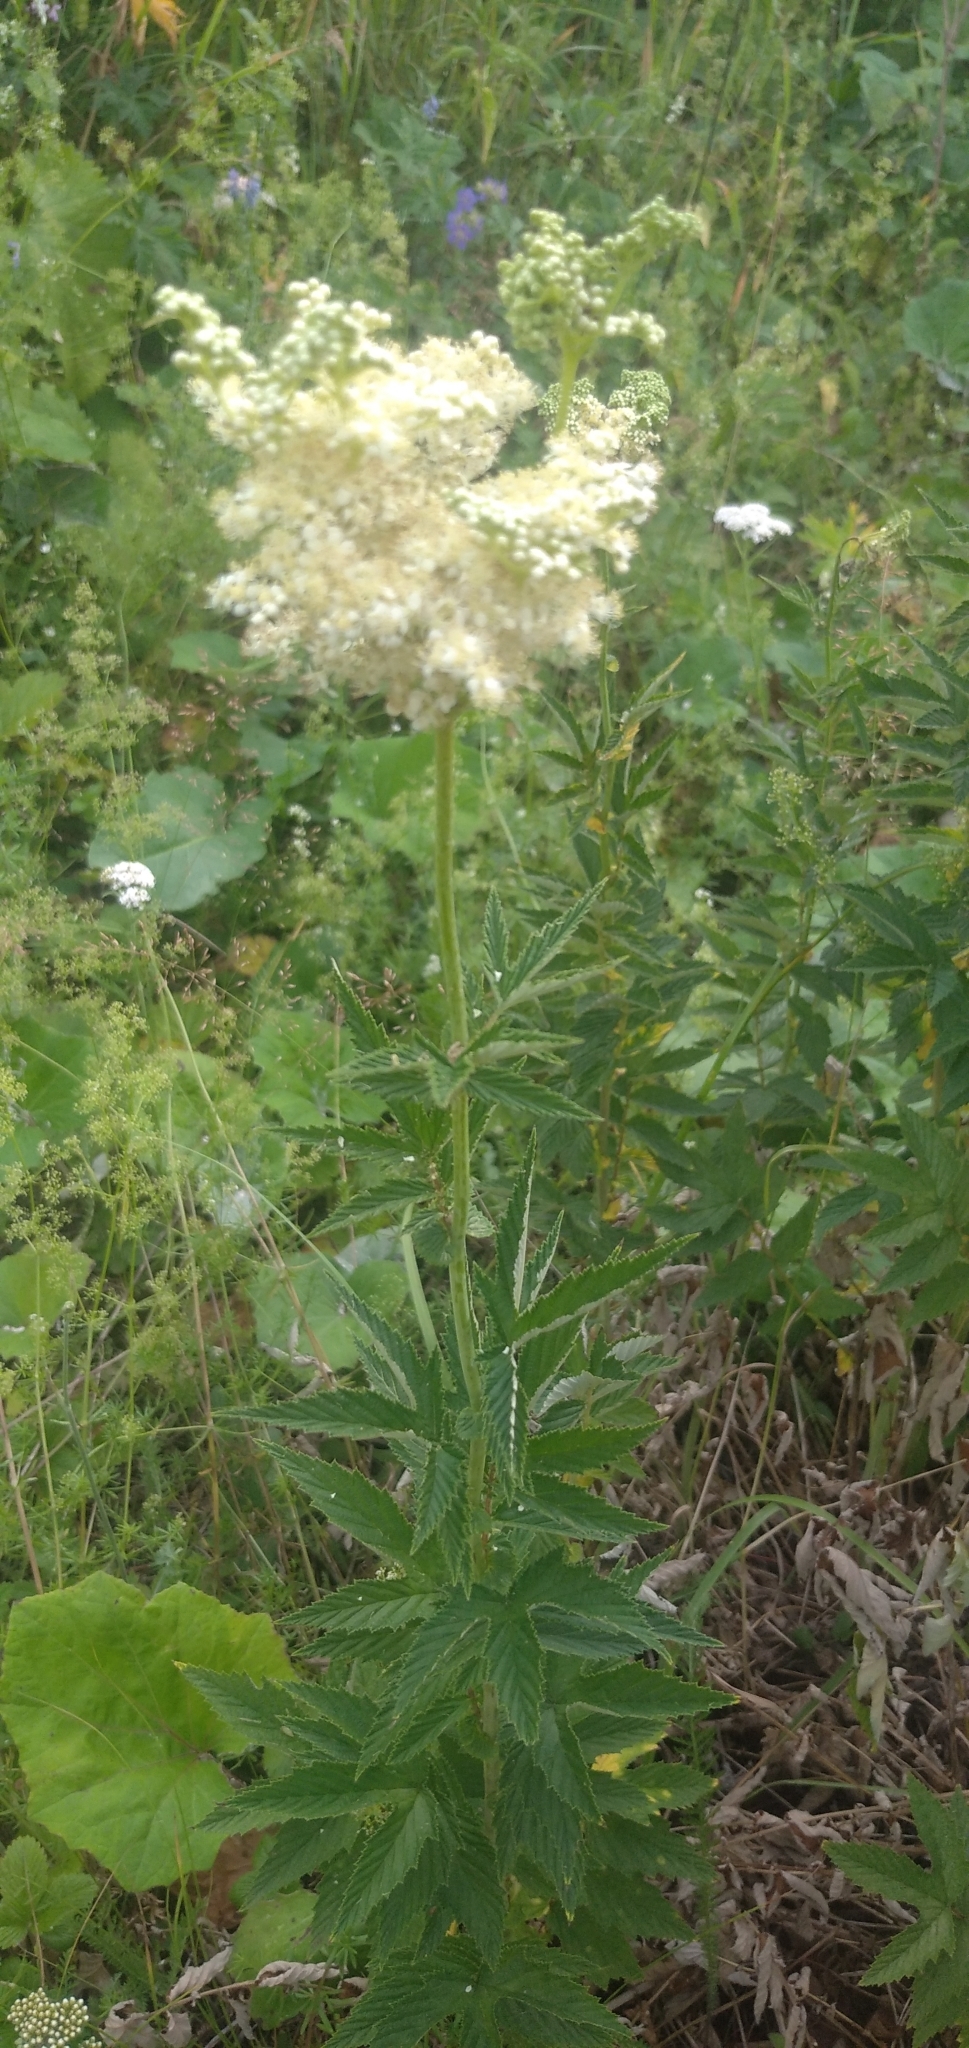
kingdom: Plantae
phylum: Tracheophyta
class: Magnoliopsida
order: Rosales
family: Rosaceae
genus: Filipendula
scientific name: Filipendula ulmaria
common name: Meadowsweet
